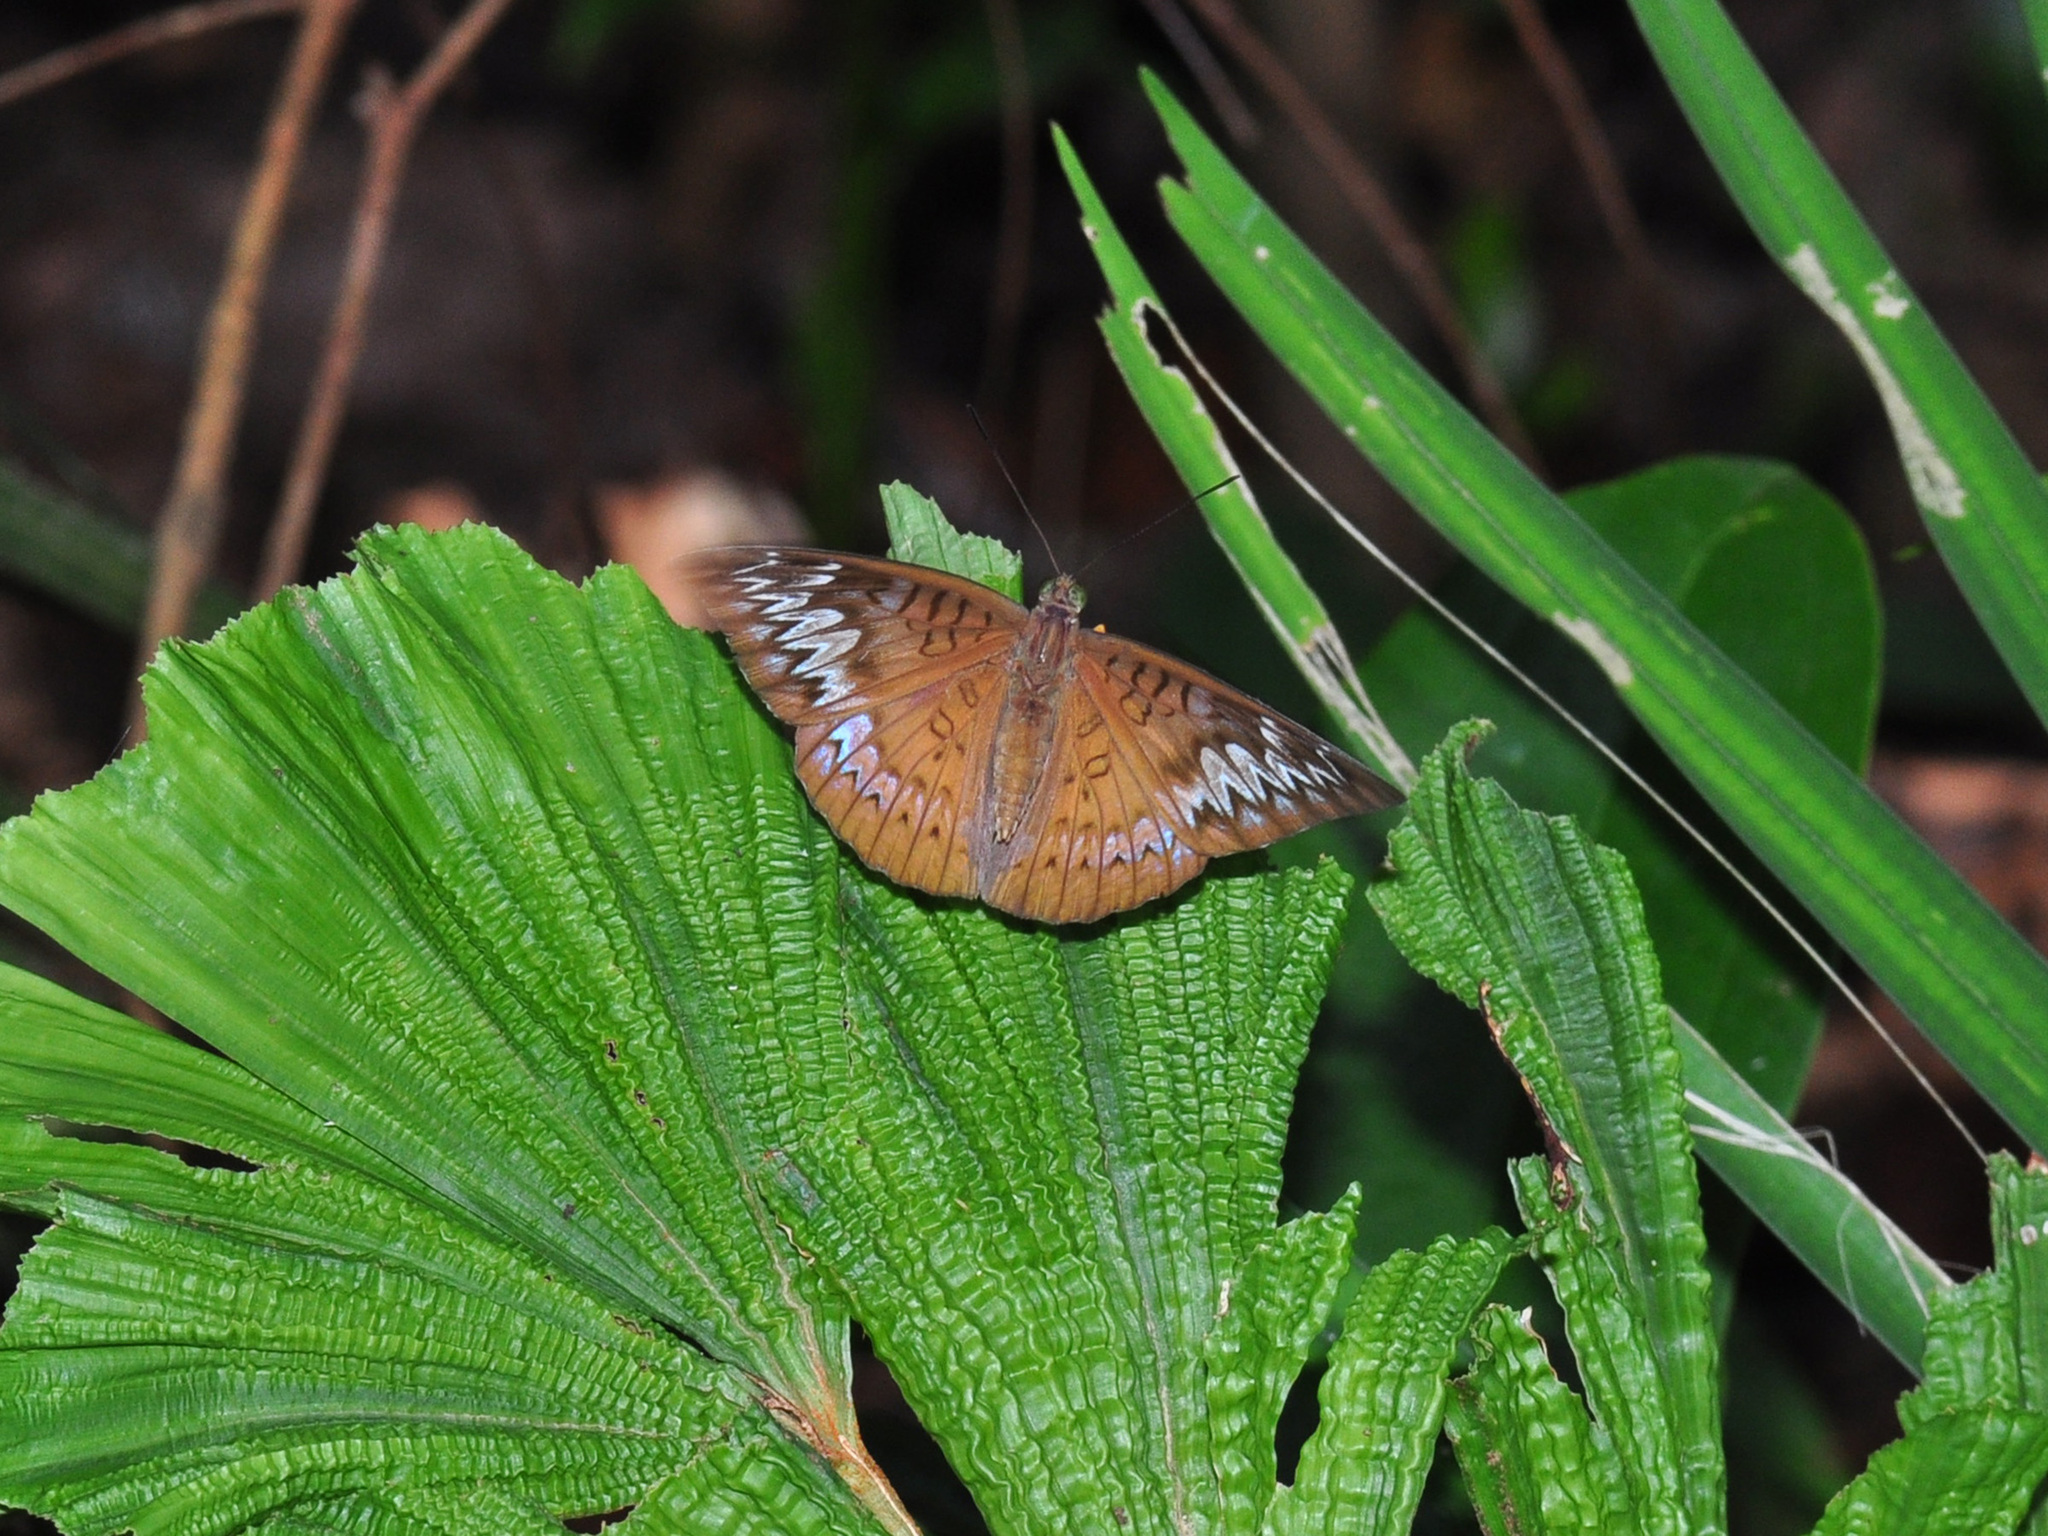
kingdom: Animalia
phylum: Arthropoda
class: Insecta
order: Lepidoptera
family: Nymphalidae
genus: Tanaecia
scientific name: Tanaecia pelea
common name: Malay viscount
